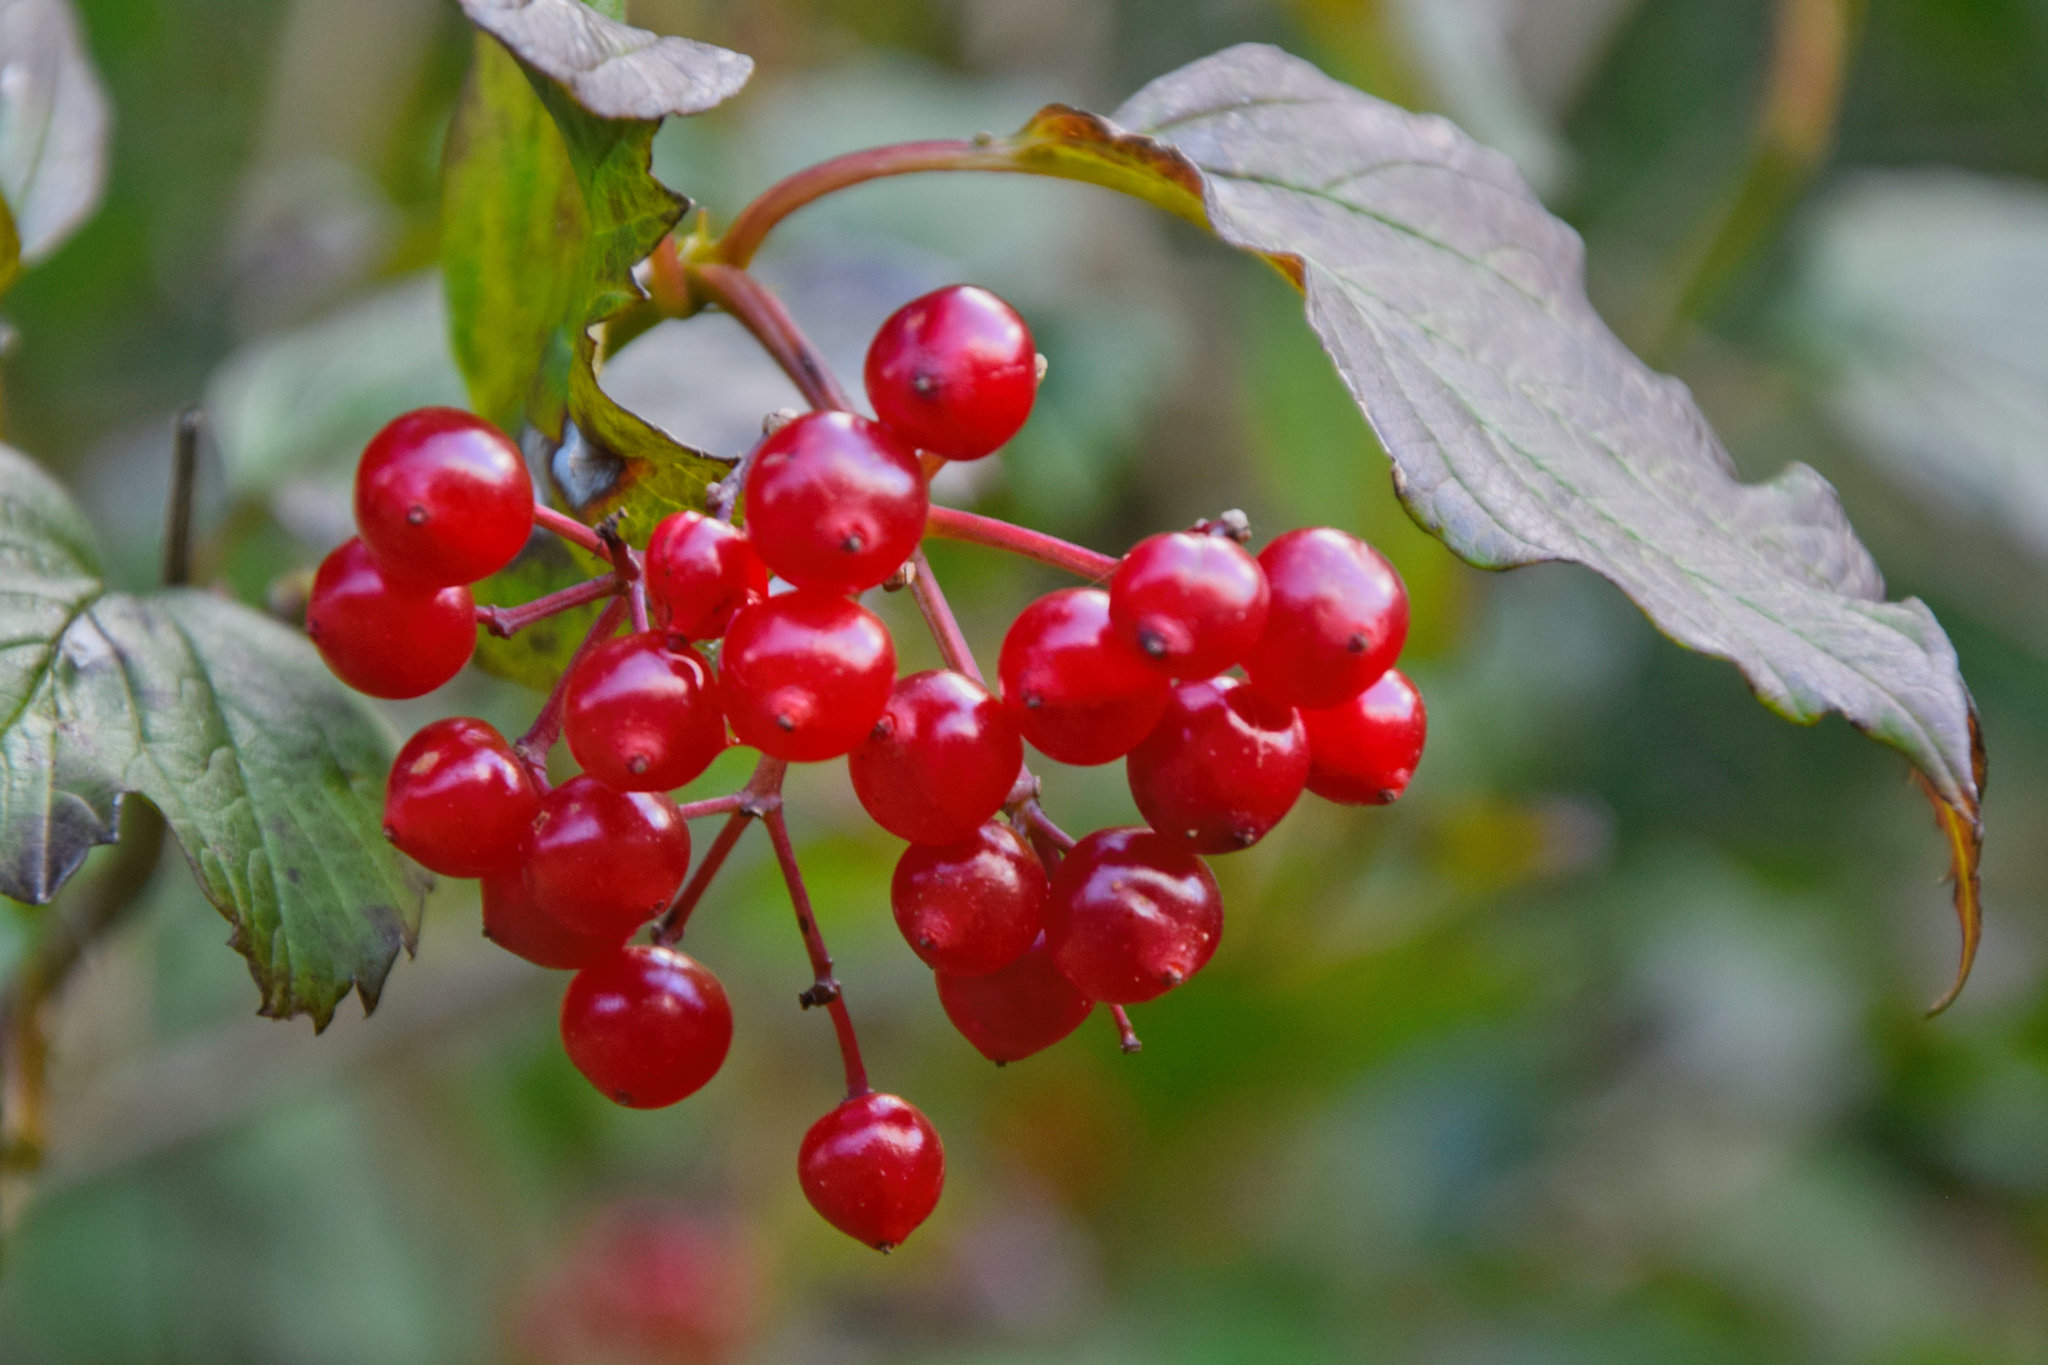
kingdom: Plantae
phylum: Tracheophyta
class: Magnoliopsida
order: Dipsacales
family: Viburnaceae
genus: Viburnum
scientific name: Viburnum opulus
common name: Guelder-rose
